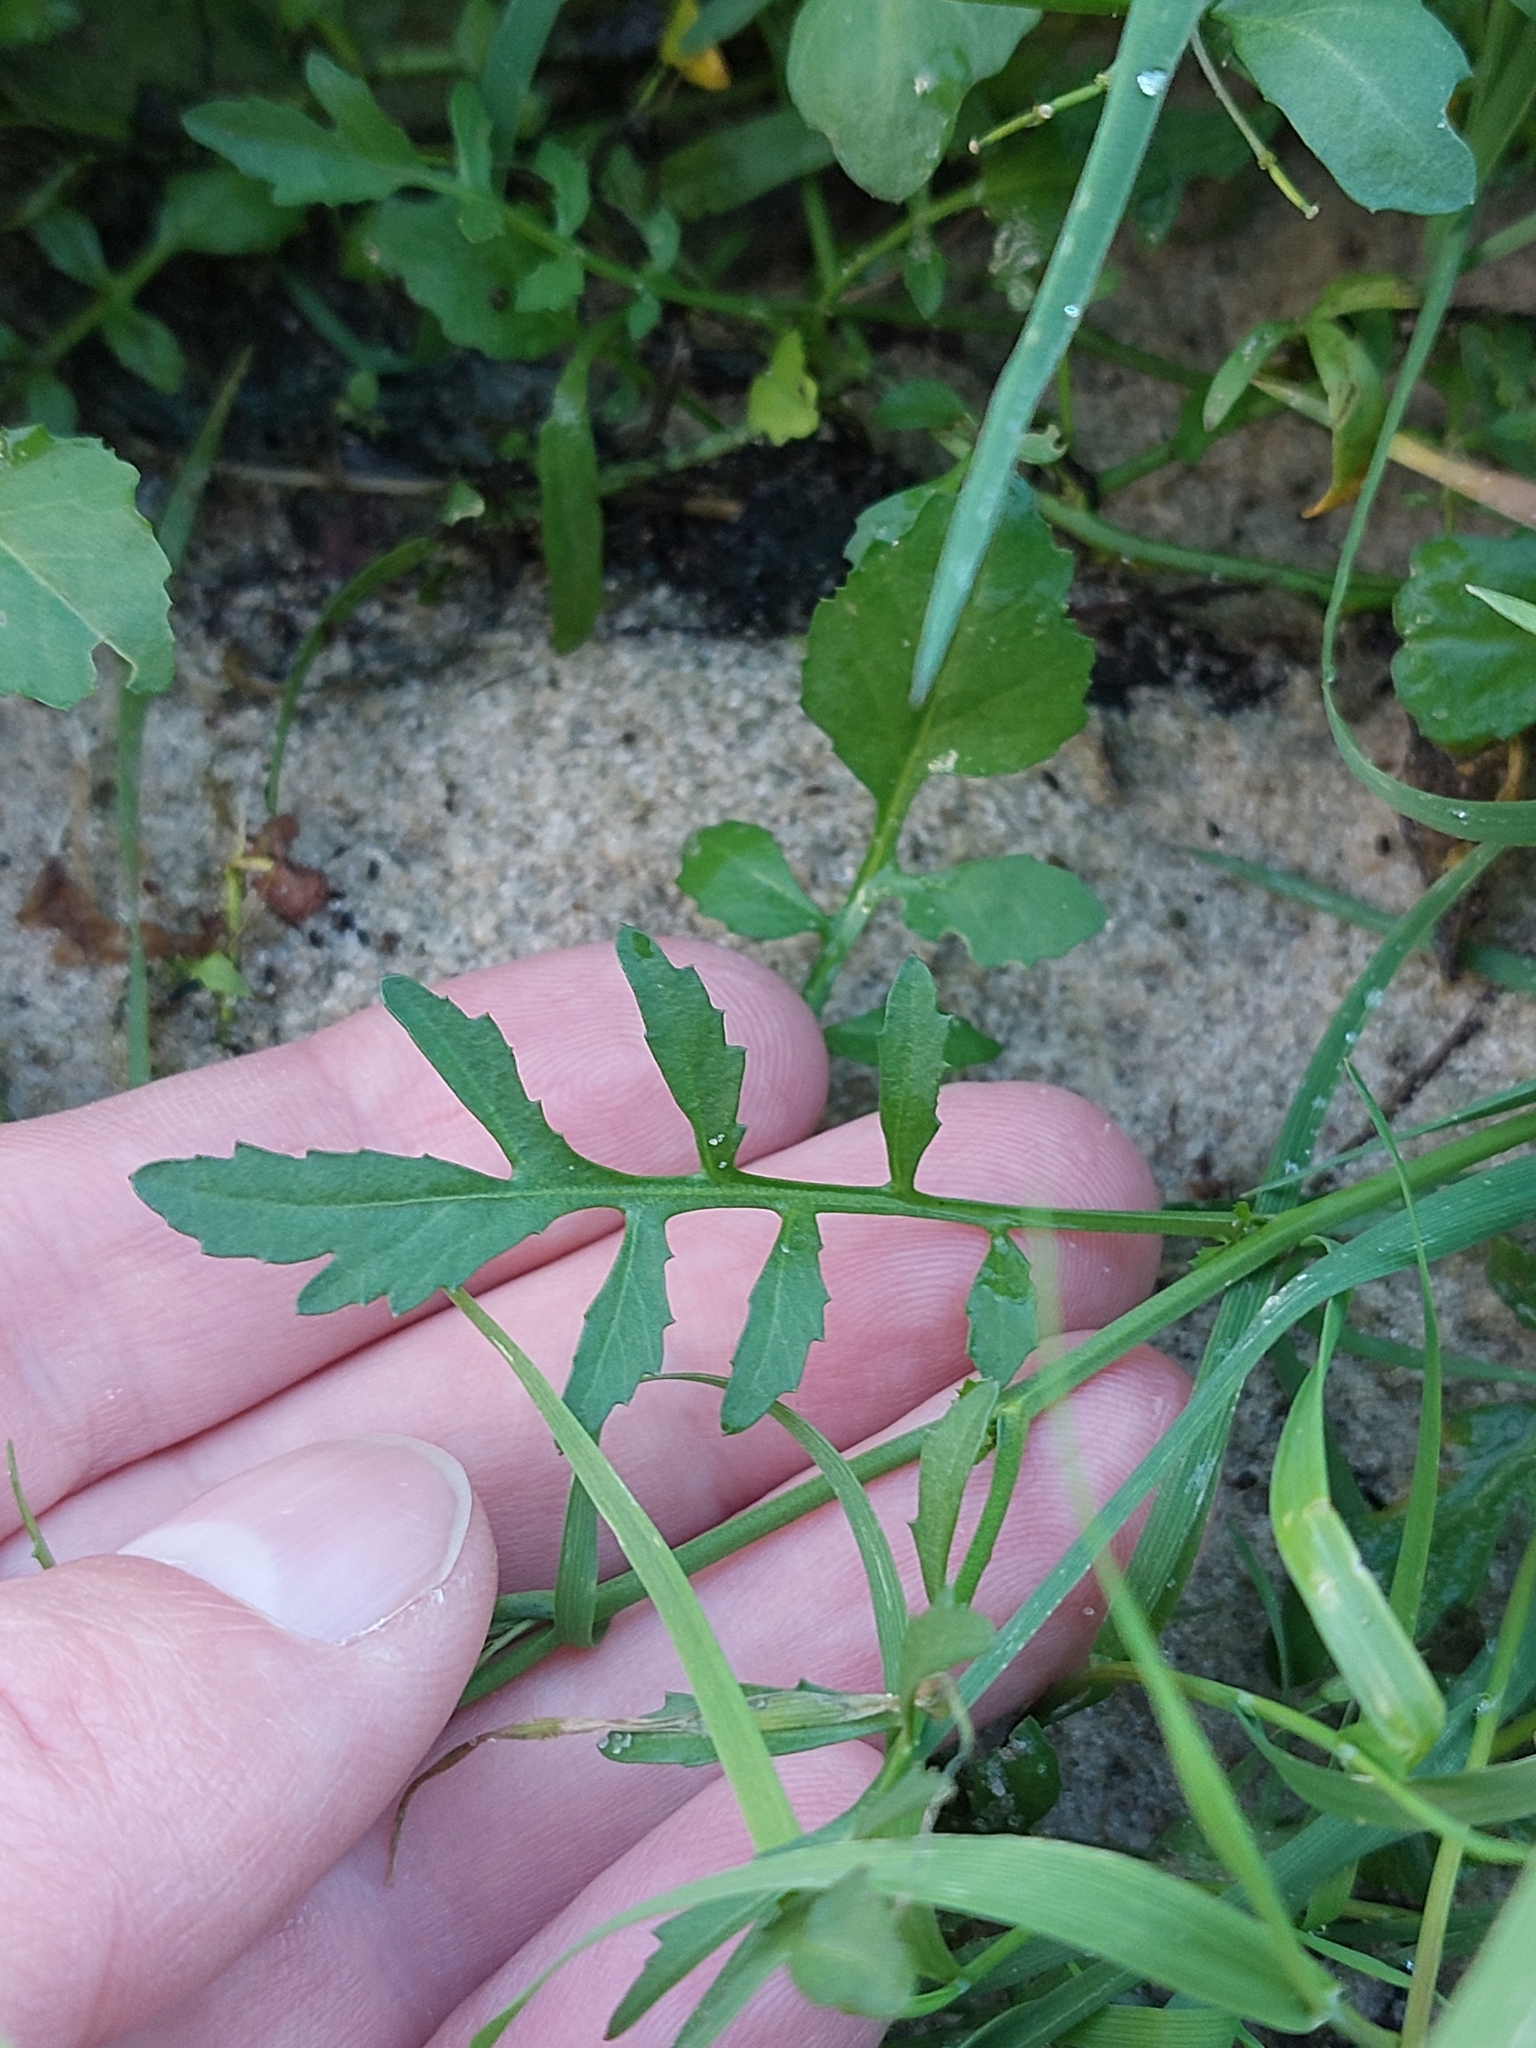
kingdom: Plantae
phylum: Tracheophyta
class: Magnoliopsida
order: Brassicales
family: Brassicaceae
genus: Rorippa
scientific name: Rorippa sylvestris
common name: Creeping yellowcress
